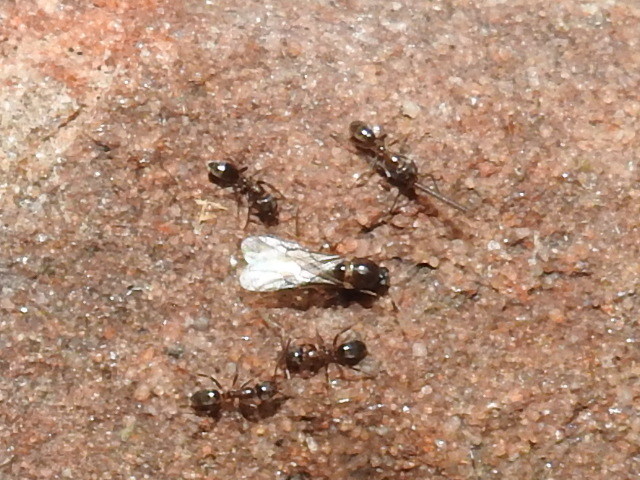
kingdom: Animalia
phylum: Arthropoda
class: Insecta
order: Hymenoptera
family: Formicidae
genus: Linepithema
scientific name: Linepithema humile
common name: Argentine ant
